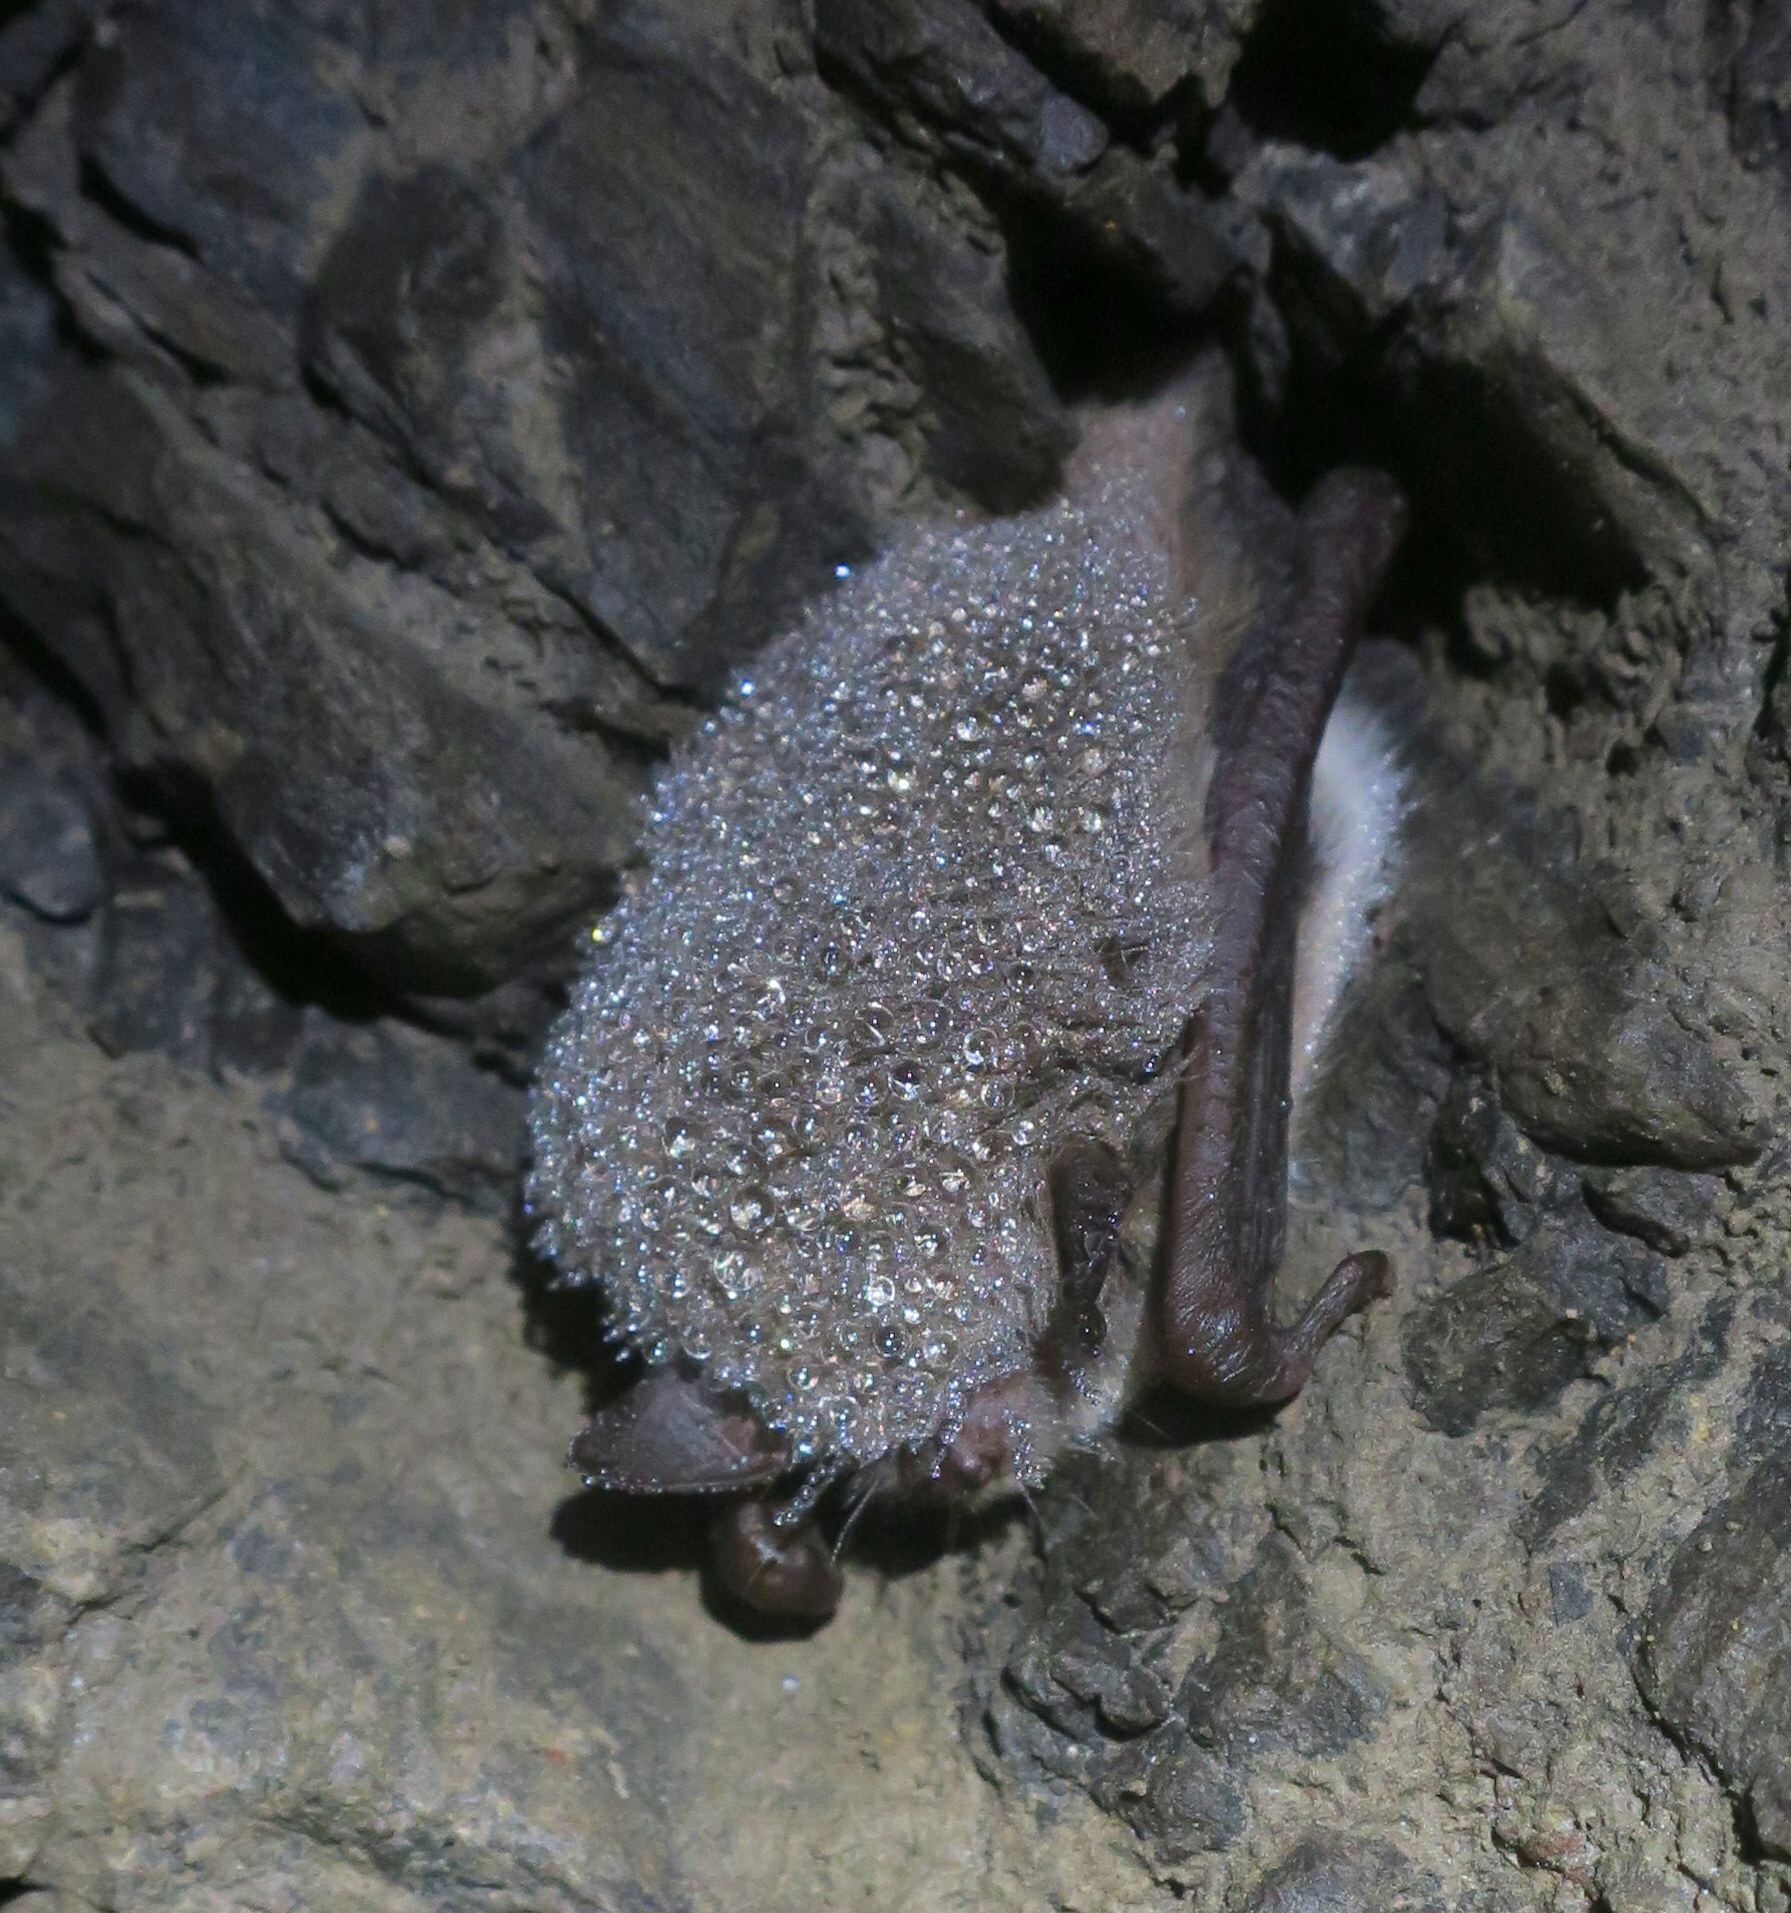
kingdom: Animalia
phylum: Chordata
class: Mammalia
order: Chiroptera
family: Vespertilionidae
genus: Myotis
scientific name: Myotis daubentonii
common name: Daubenton's myotis
